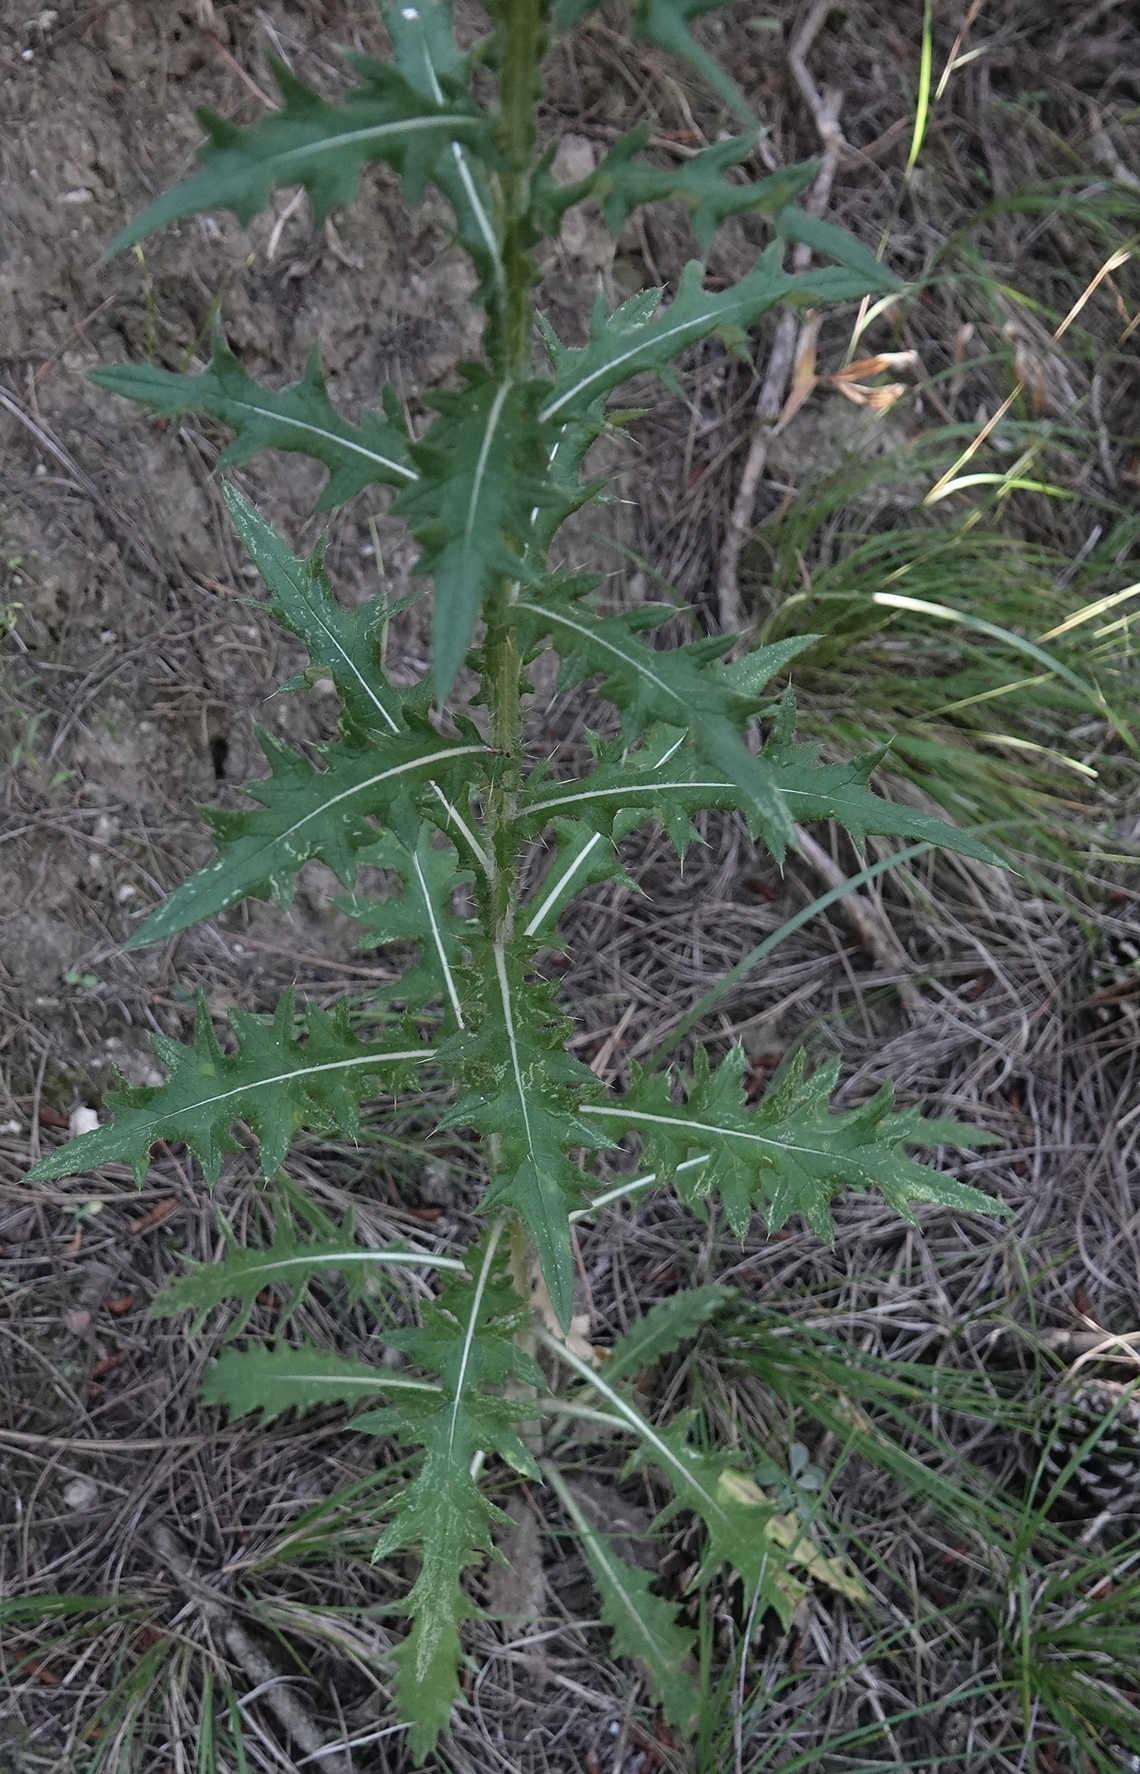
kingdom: Plantae
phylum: Tracheophyta
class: Magnoliopsida
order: Asterales
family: Asteraceae
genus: Cirsium
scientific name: Cirsium vulgare
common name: Bull thistle
